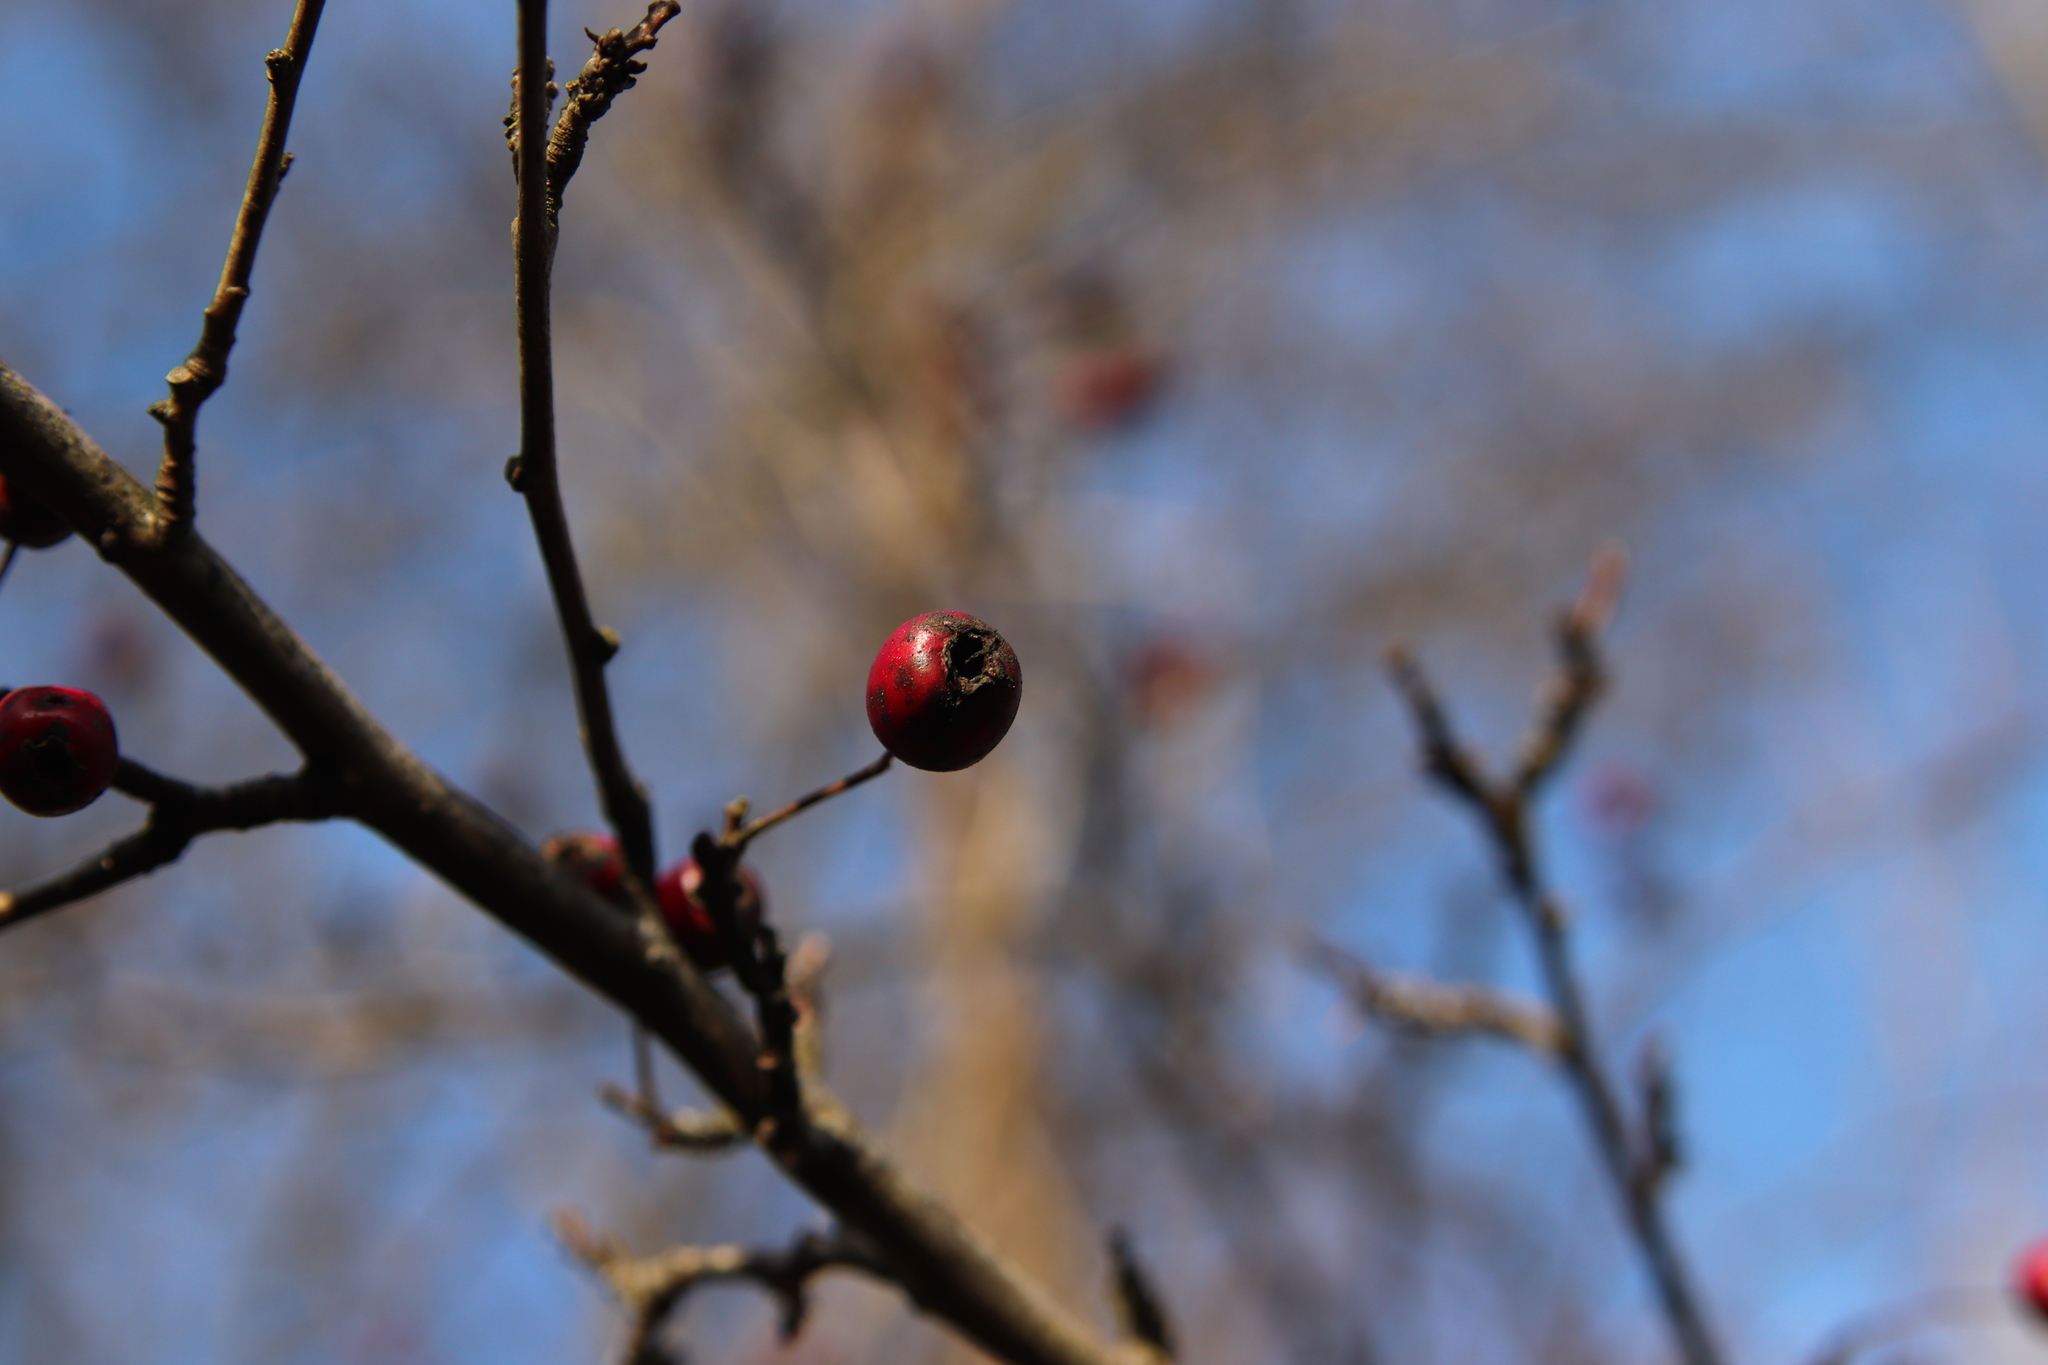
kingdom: Plantae
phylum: Tracheophyta
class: Magnoliopsida
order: Rosales
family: Rosaceae
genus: Crataegus
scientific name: Crataegus monogyna
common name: Hawthorn
